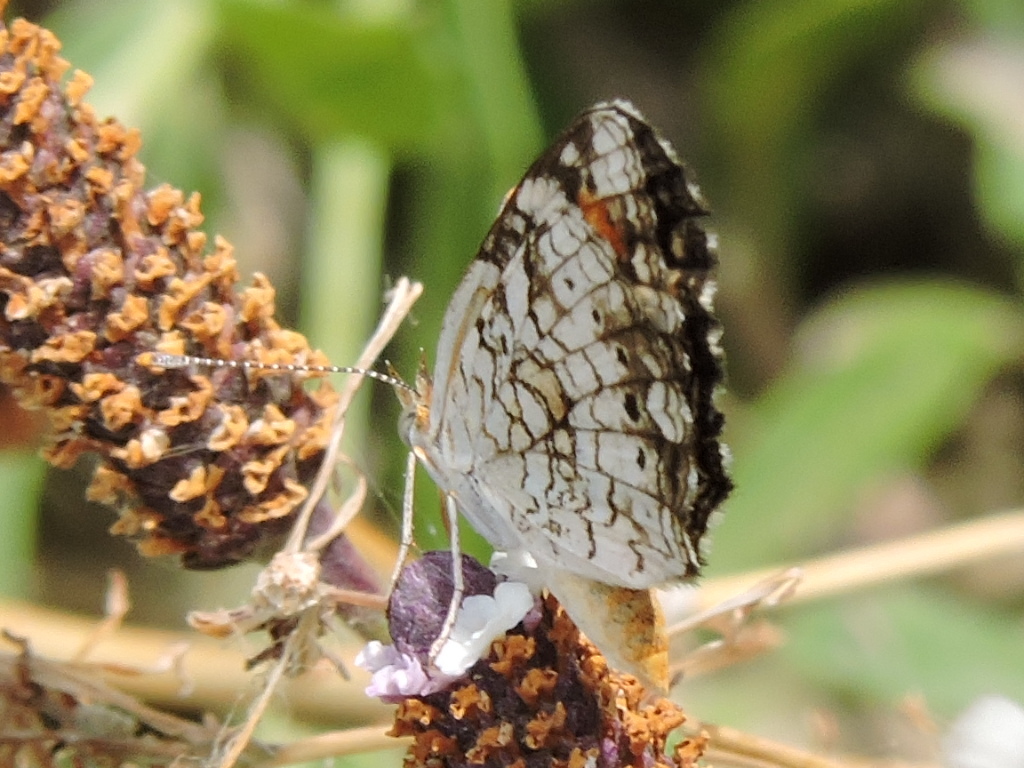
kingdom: Animalia
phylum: Arthropoda
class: Insecta
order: Lepidoptera
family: Nymphalidae
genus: Phyciodes
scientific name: Phyciodes phaon
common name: Phaon crescent
